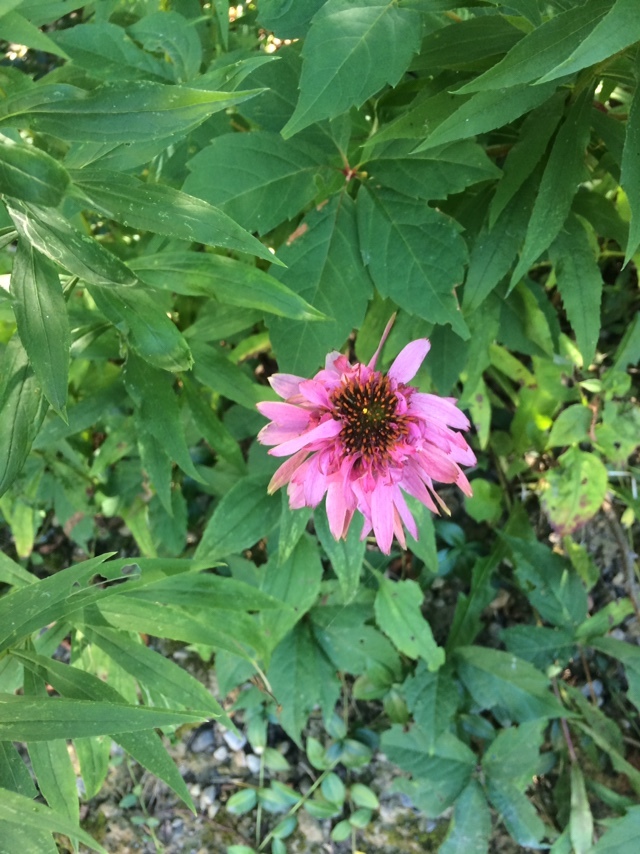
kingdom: Plantae
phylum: Tracheophyta
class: Magnoliopsida
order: Asterales
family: Asteraceae
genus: Echinacea
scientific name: Echinacea purpurea
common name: Broad-leaved purple coneflower
